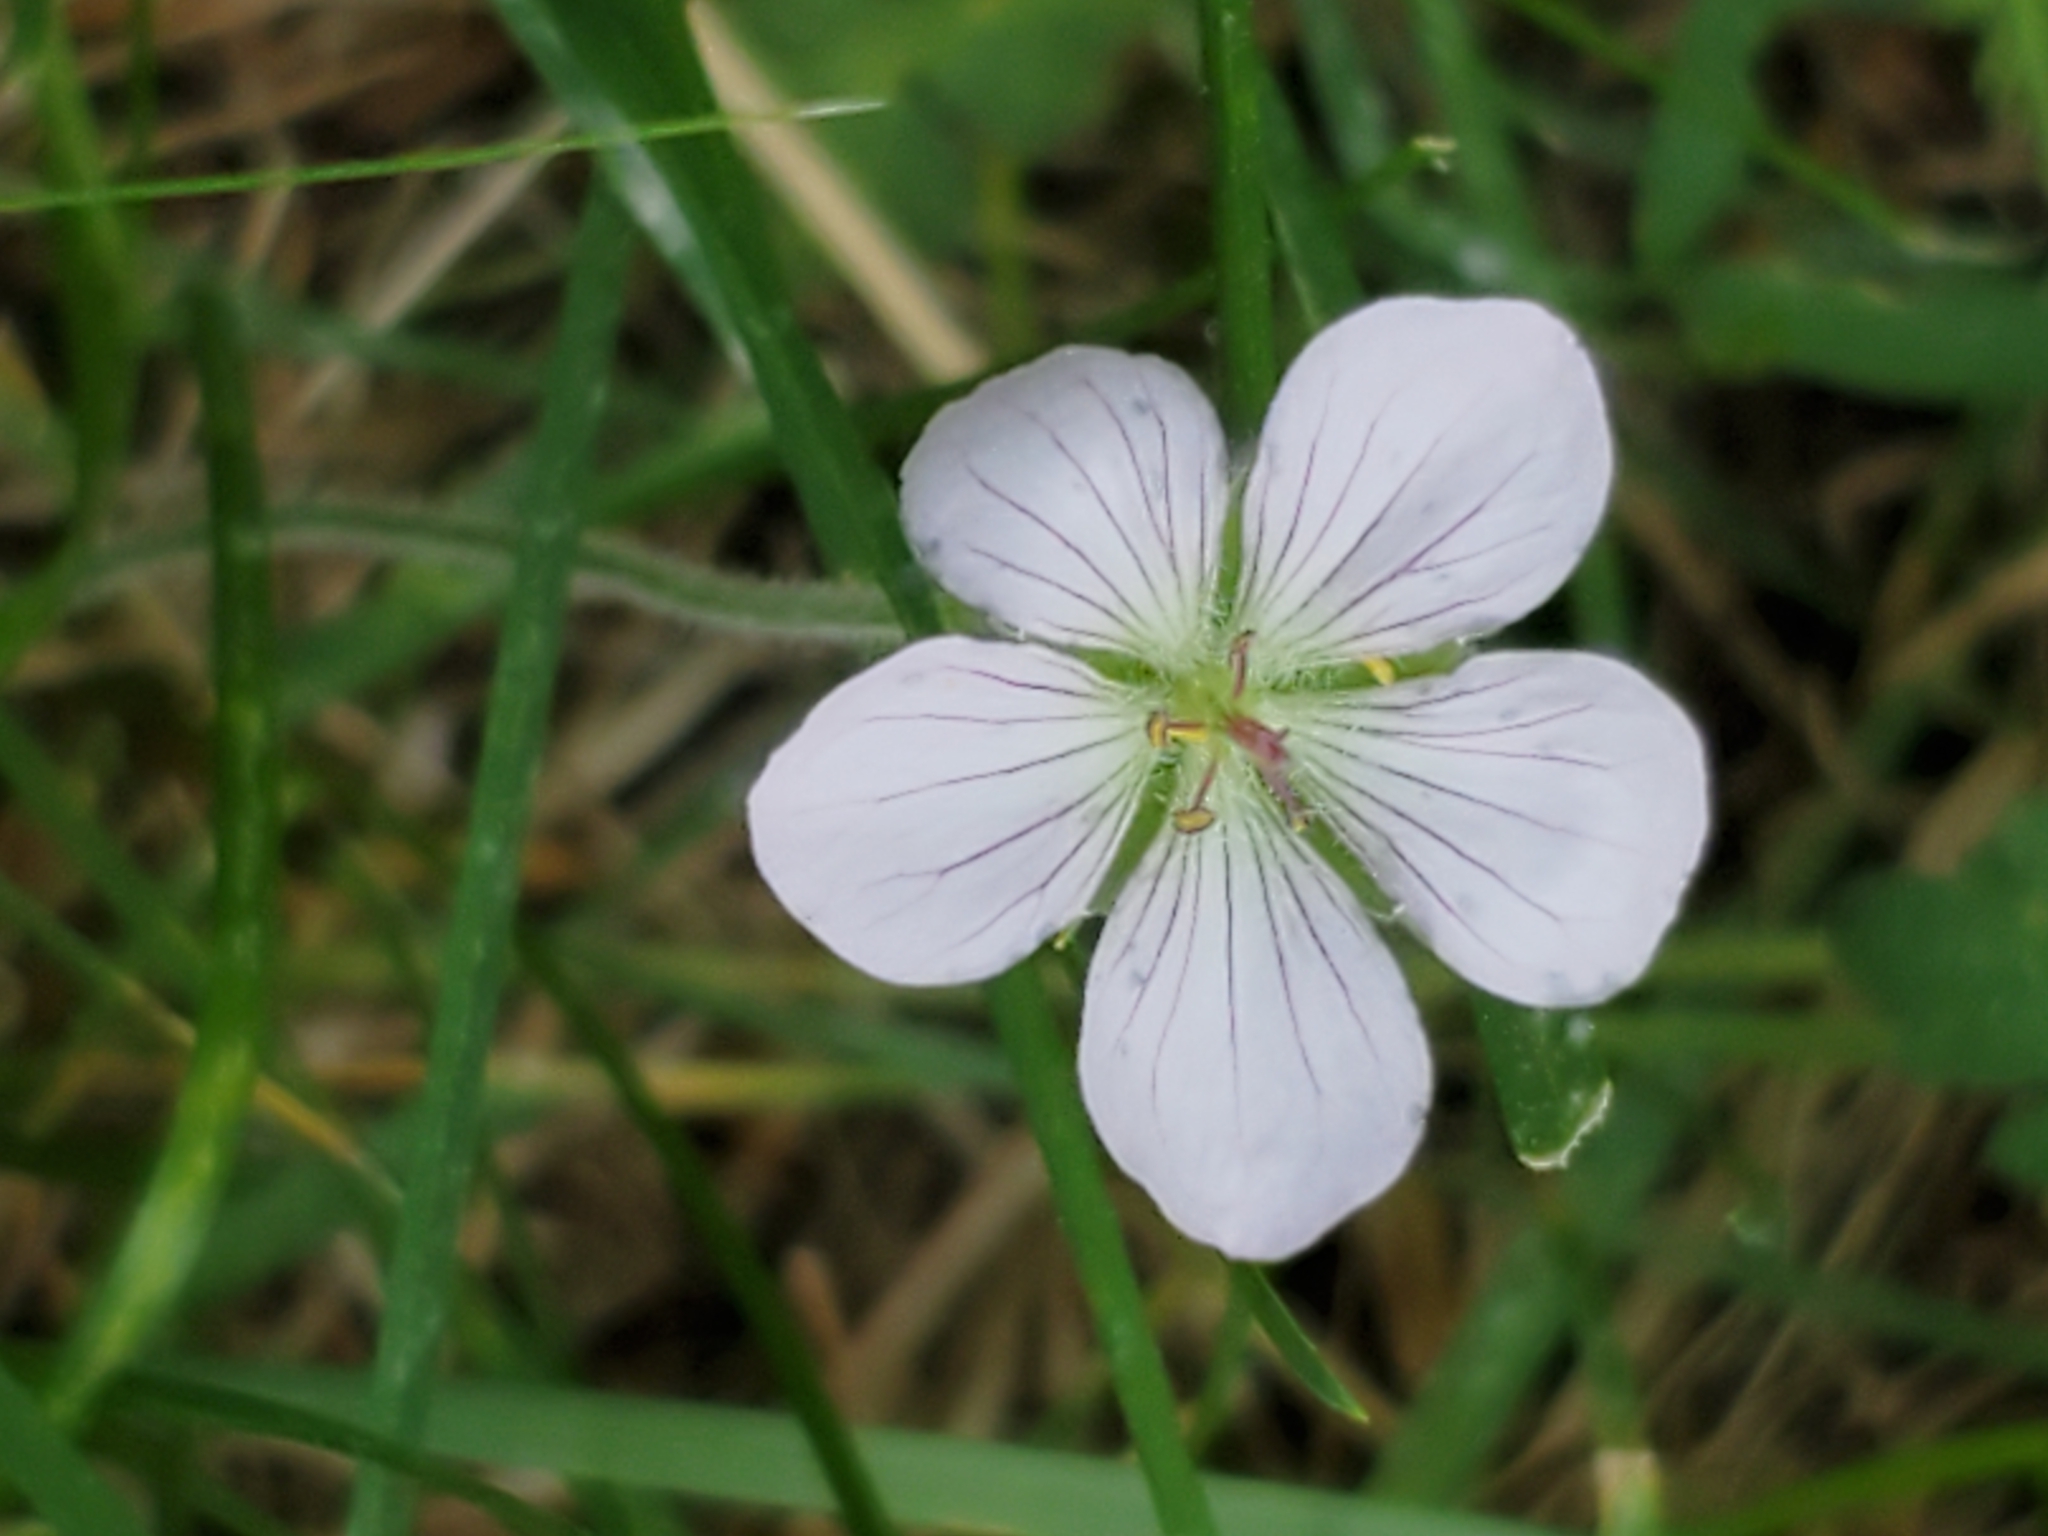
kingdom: Plantae
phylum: Tracheophyta
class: Magnoliopsida
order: Geraniales
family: Geraniaceae
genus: Geranium
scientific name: Geranium richardsonii
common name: Richardson's crane's-bill
